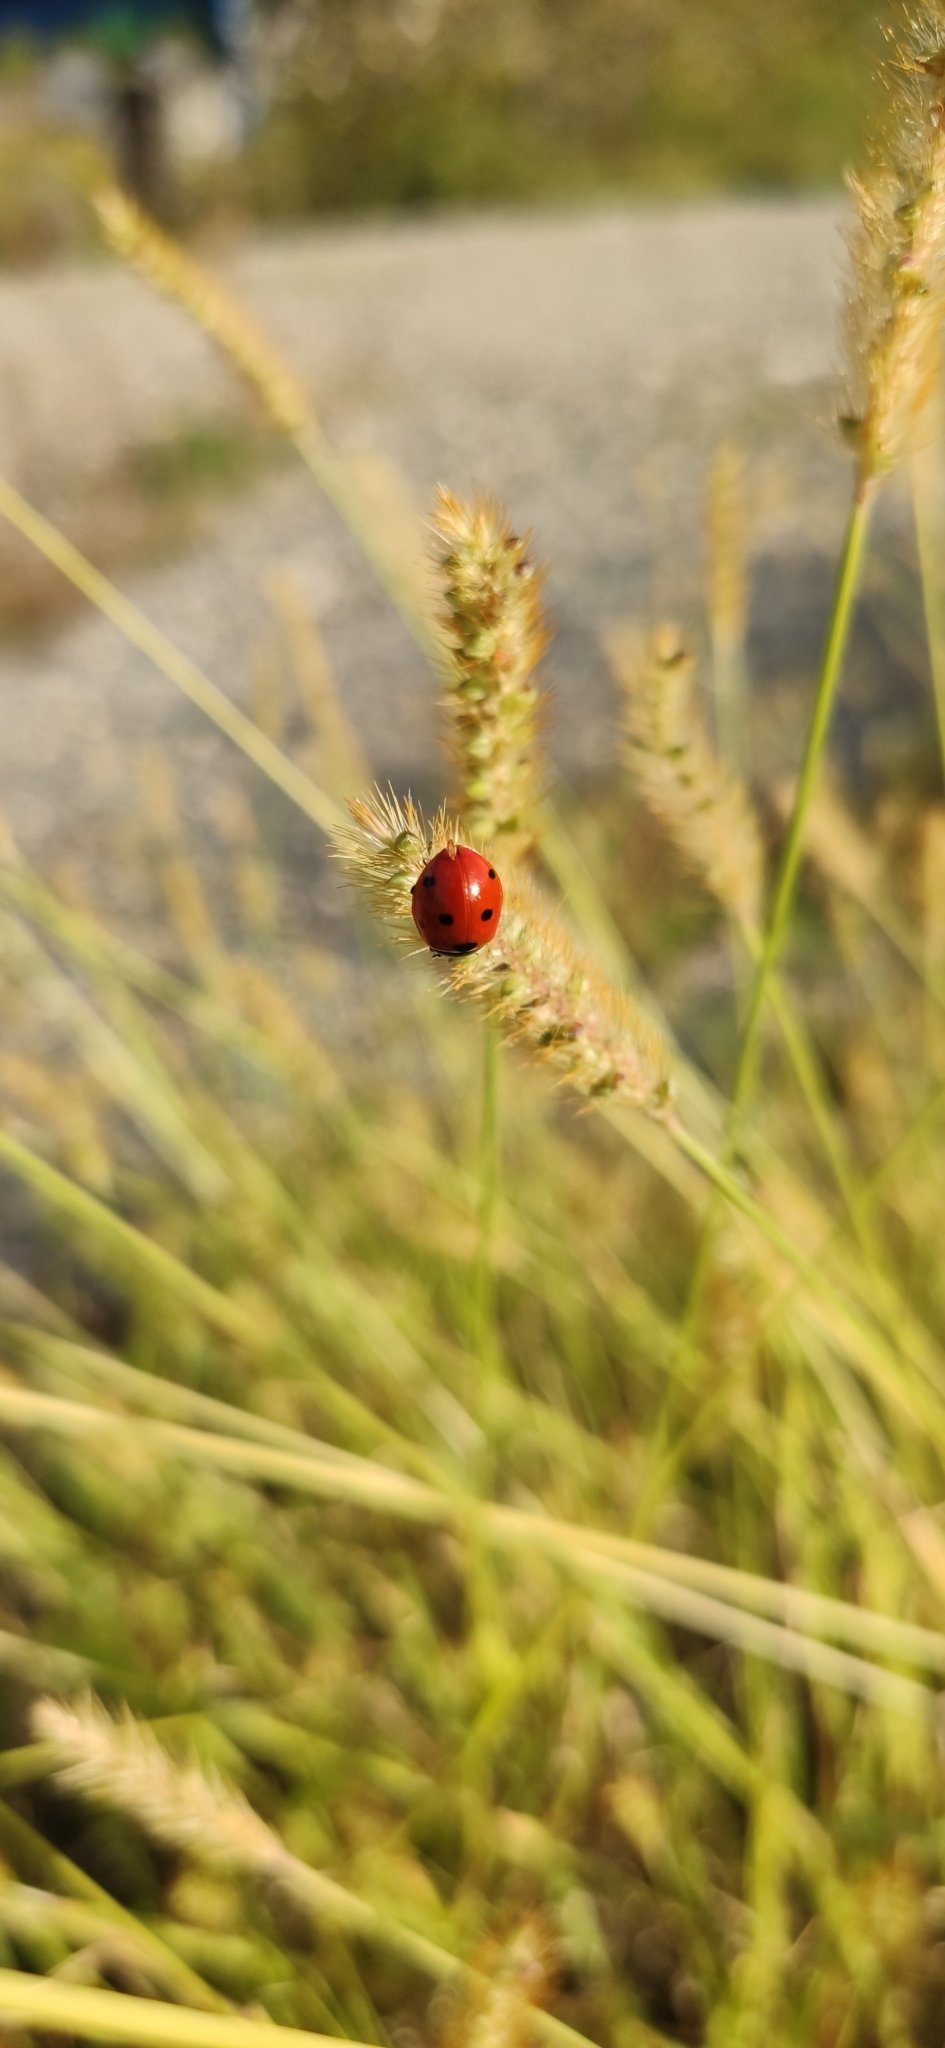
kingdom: Animalia
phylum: Arthropoda
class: Insecta
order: Coleoptera
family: Coccinellidae
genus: Coccinella
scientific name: Coccinella septempunctata
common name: Sevenspotted lady beetle
